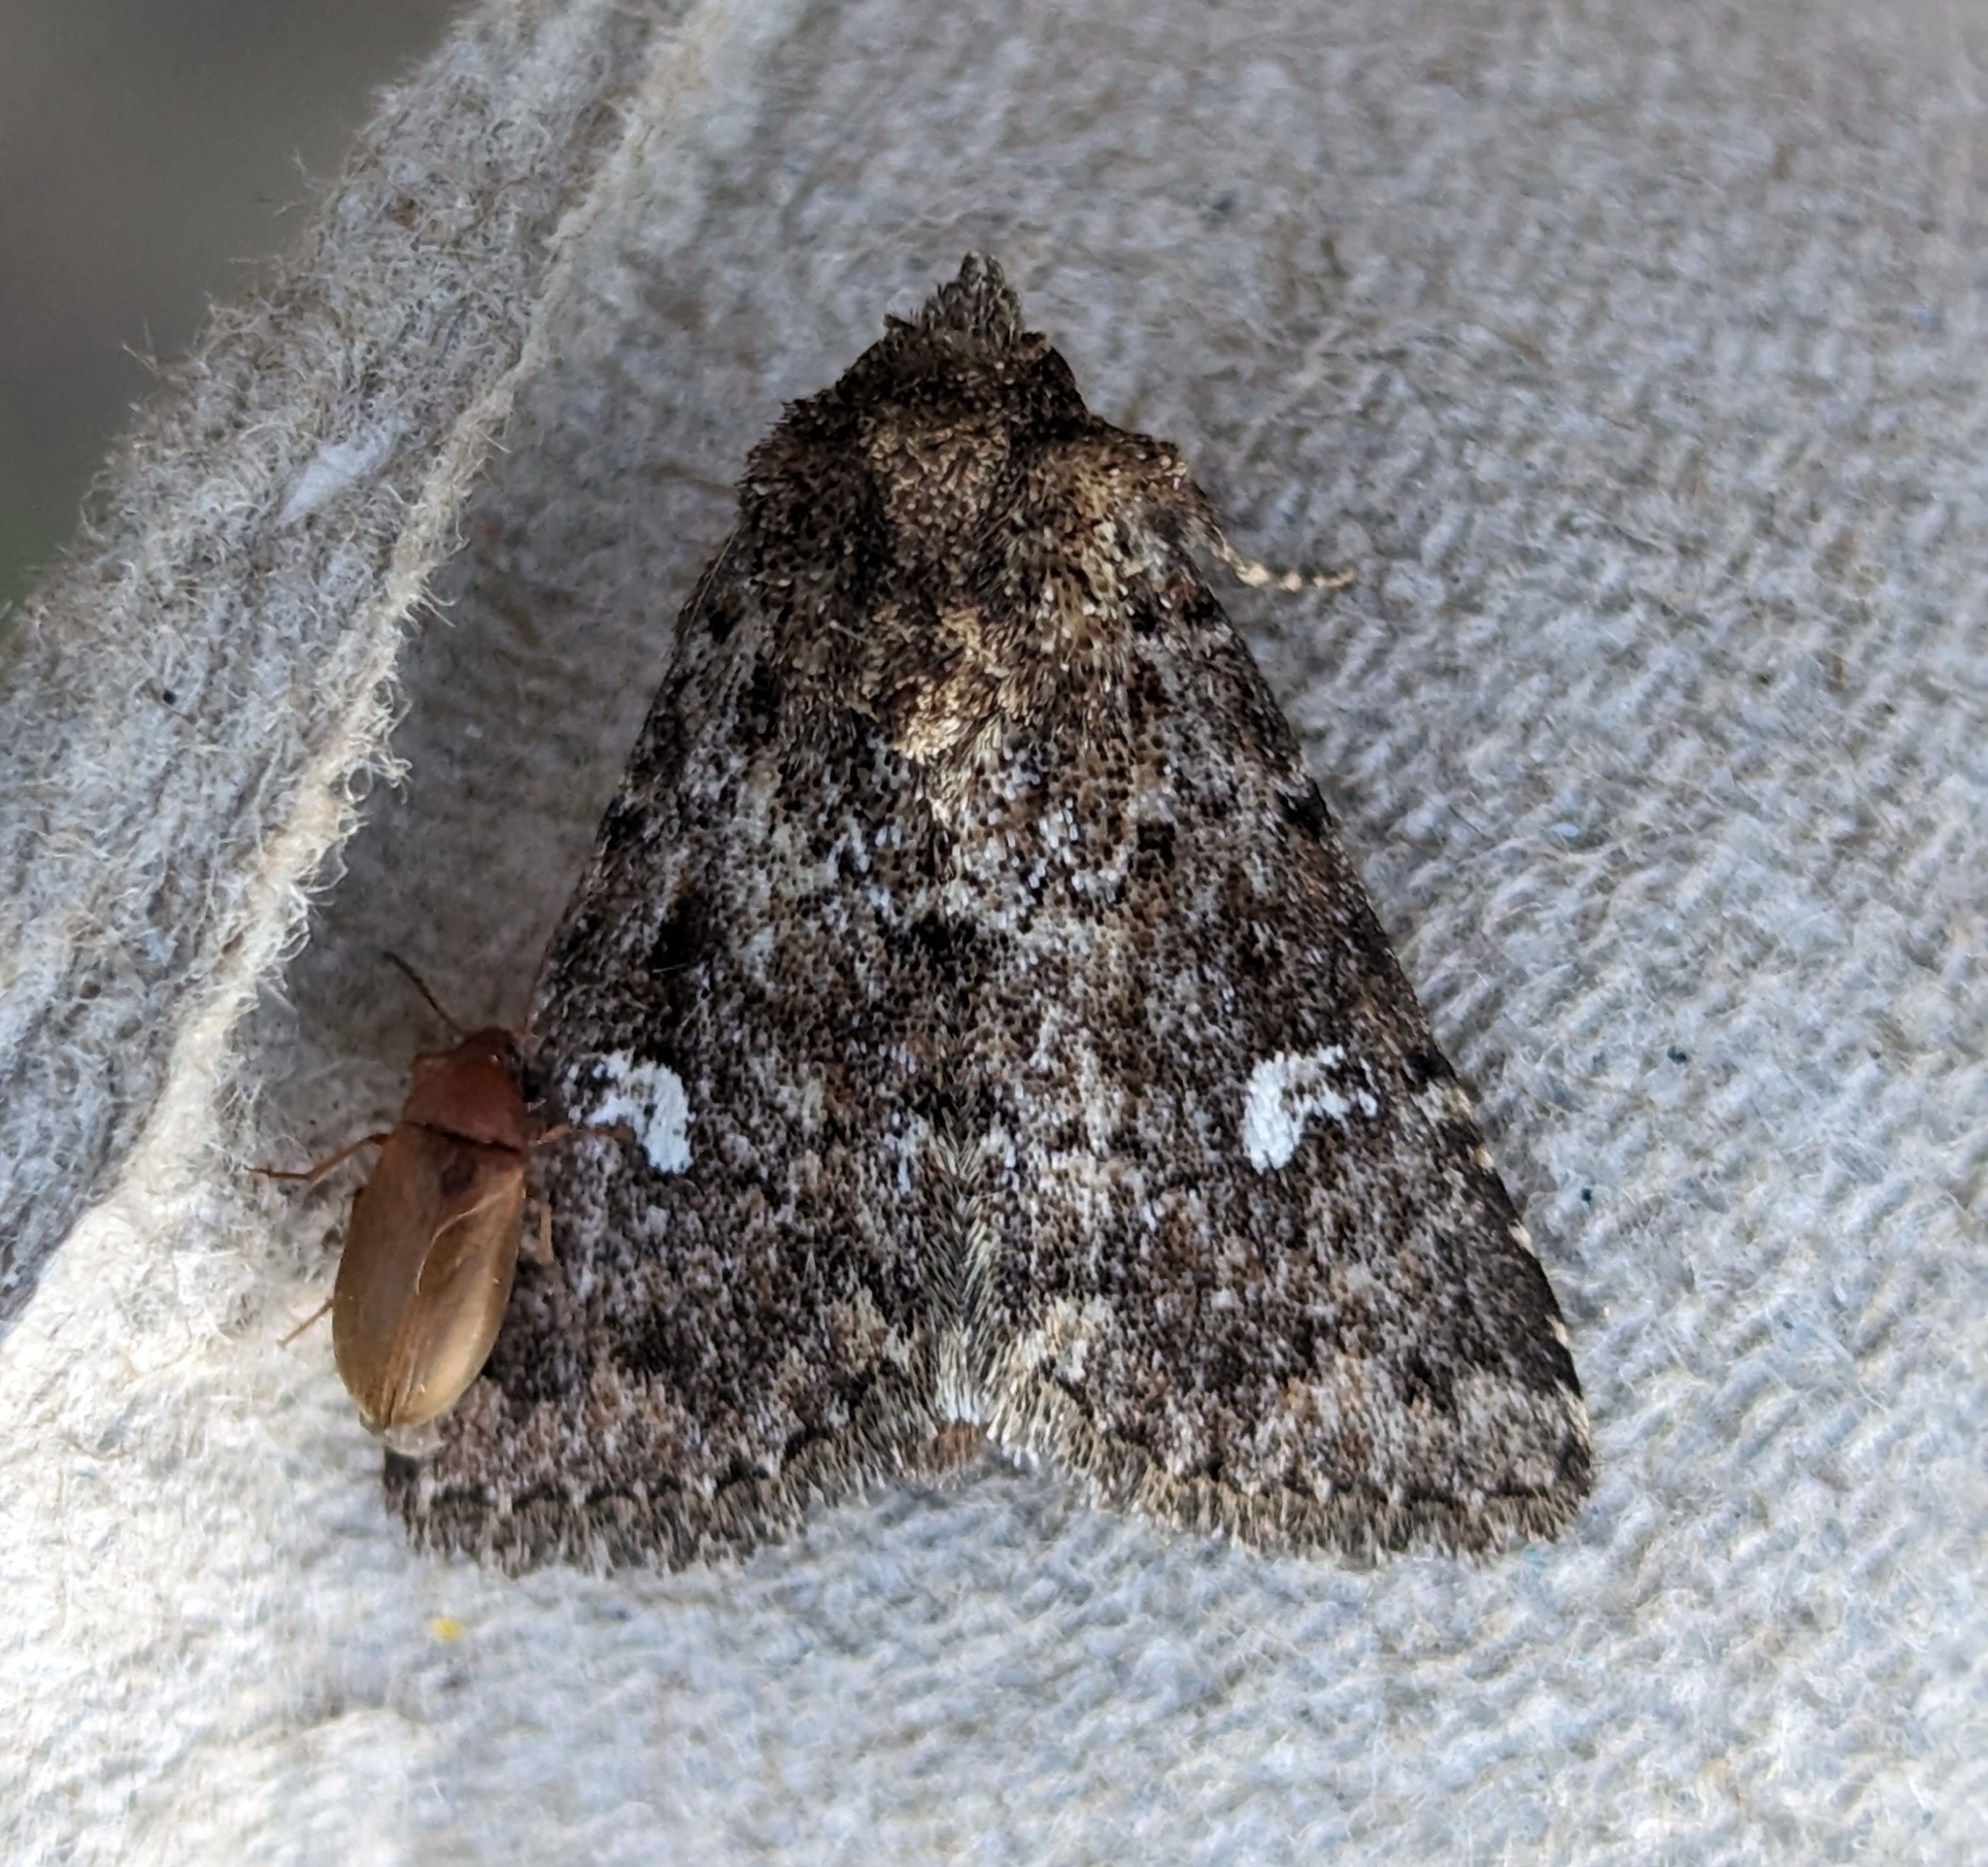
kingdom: Animalia
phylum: Arthropoda
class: Insecta
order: Lepidoptera
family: Noctuidae
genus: Properigea
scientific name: Properigea albimacula
